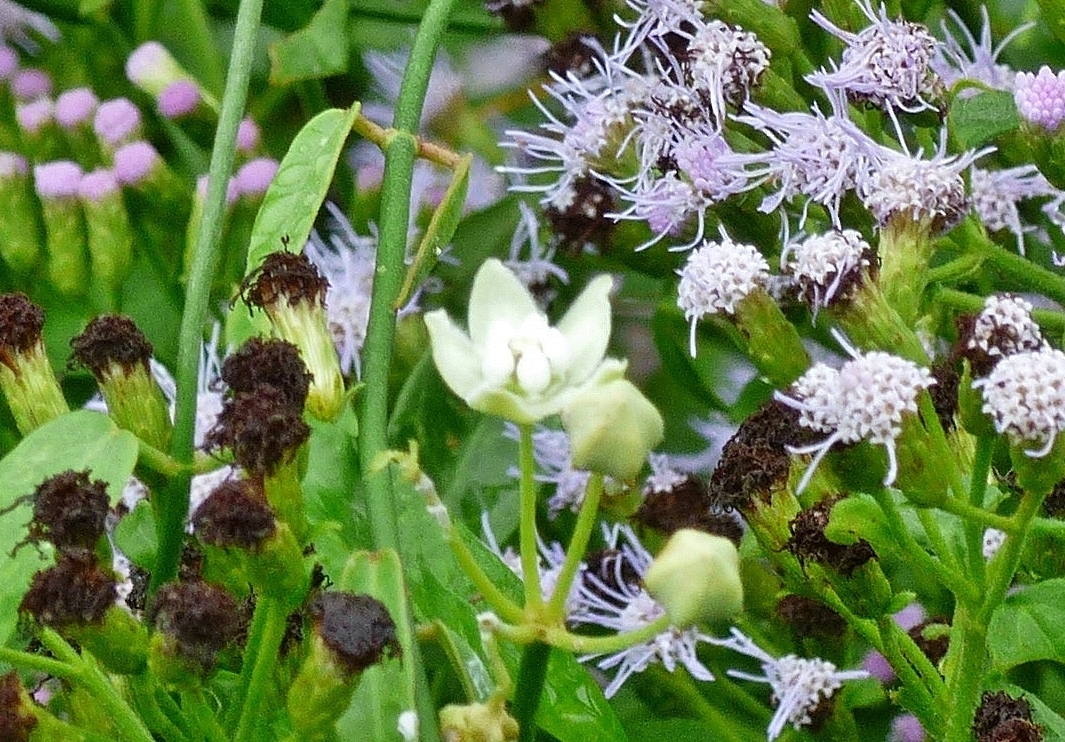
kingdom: Plantae
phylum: Tracheophyta
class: Magnoliopsida
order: Gentianales
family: Apocynaceae
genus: Funastrum
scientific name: Funastrum clausum
